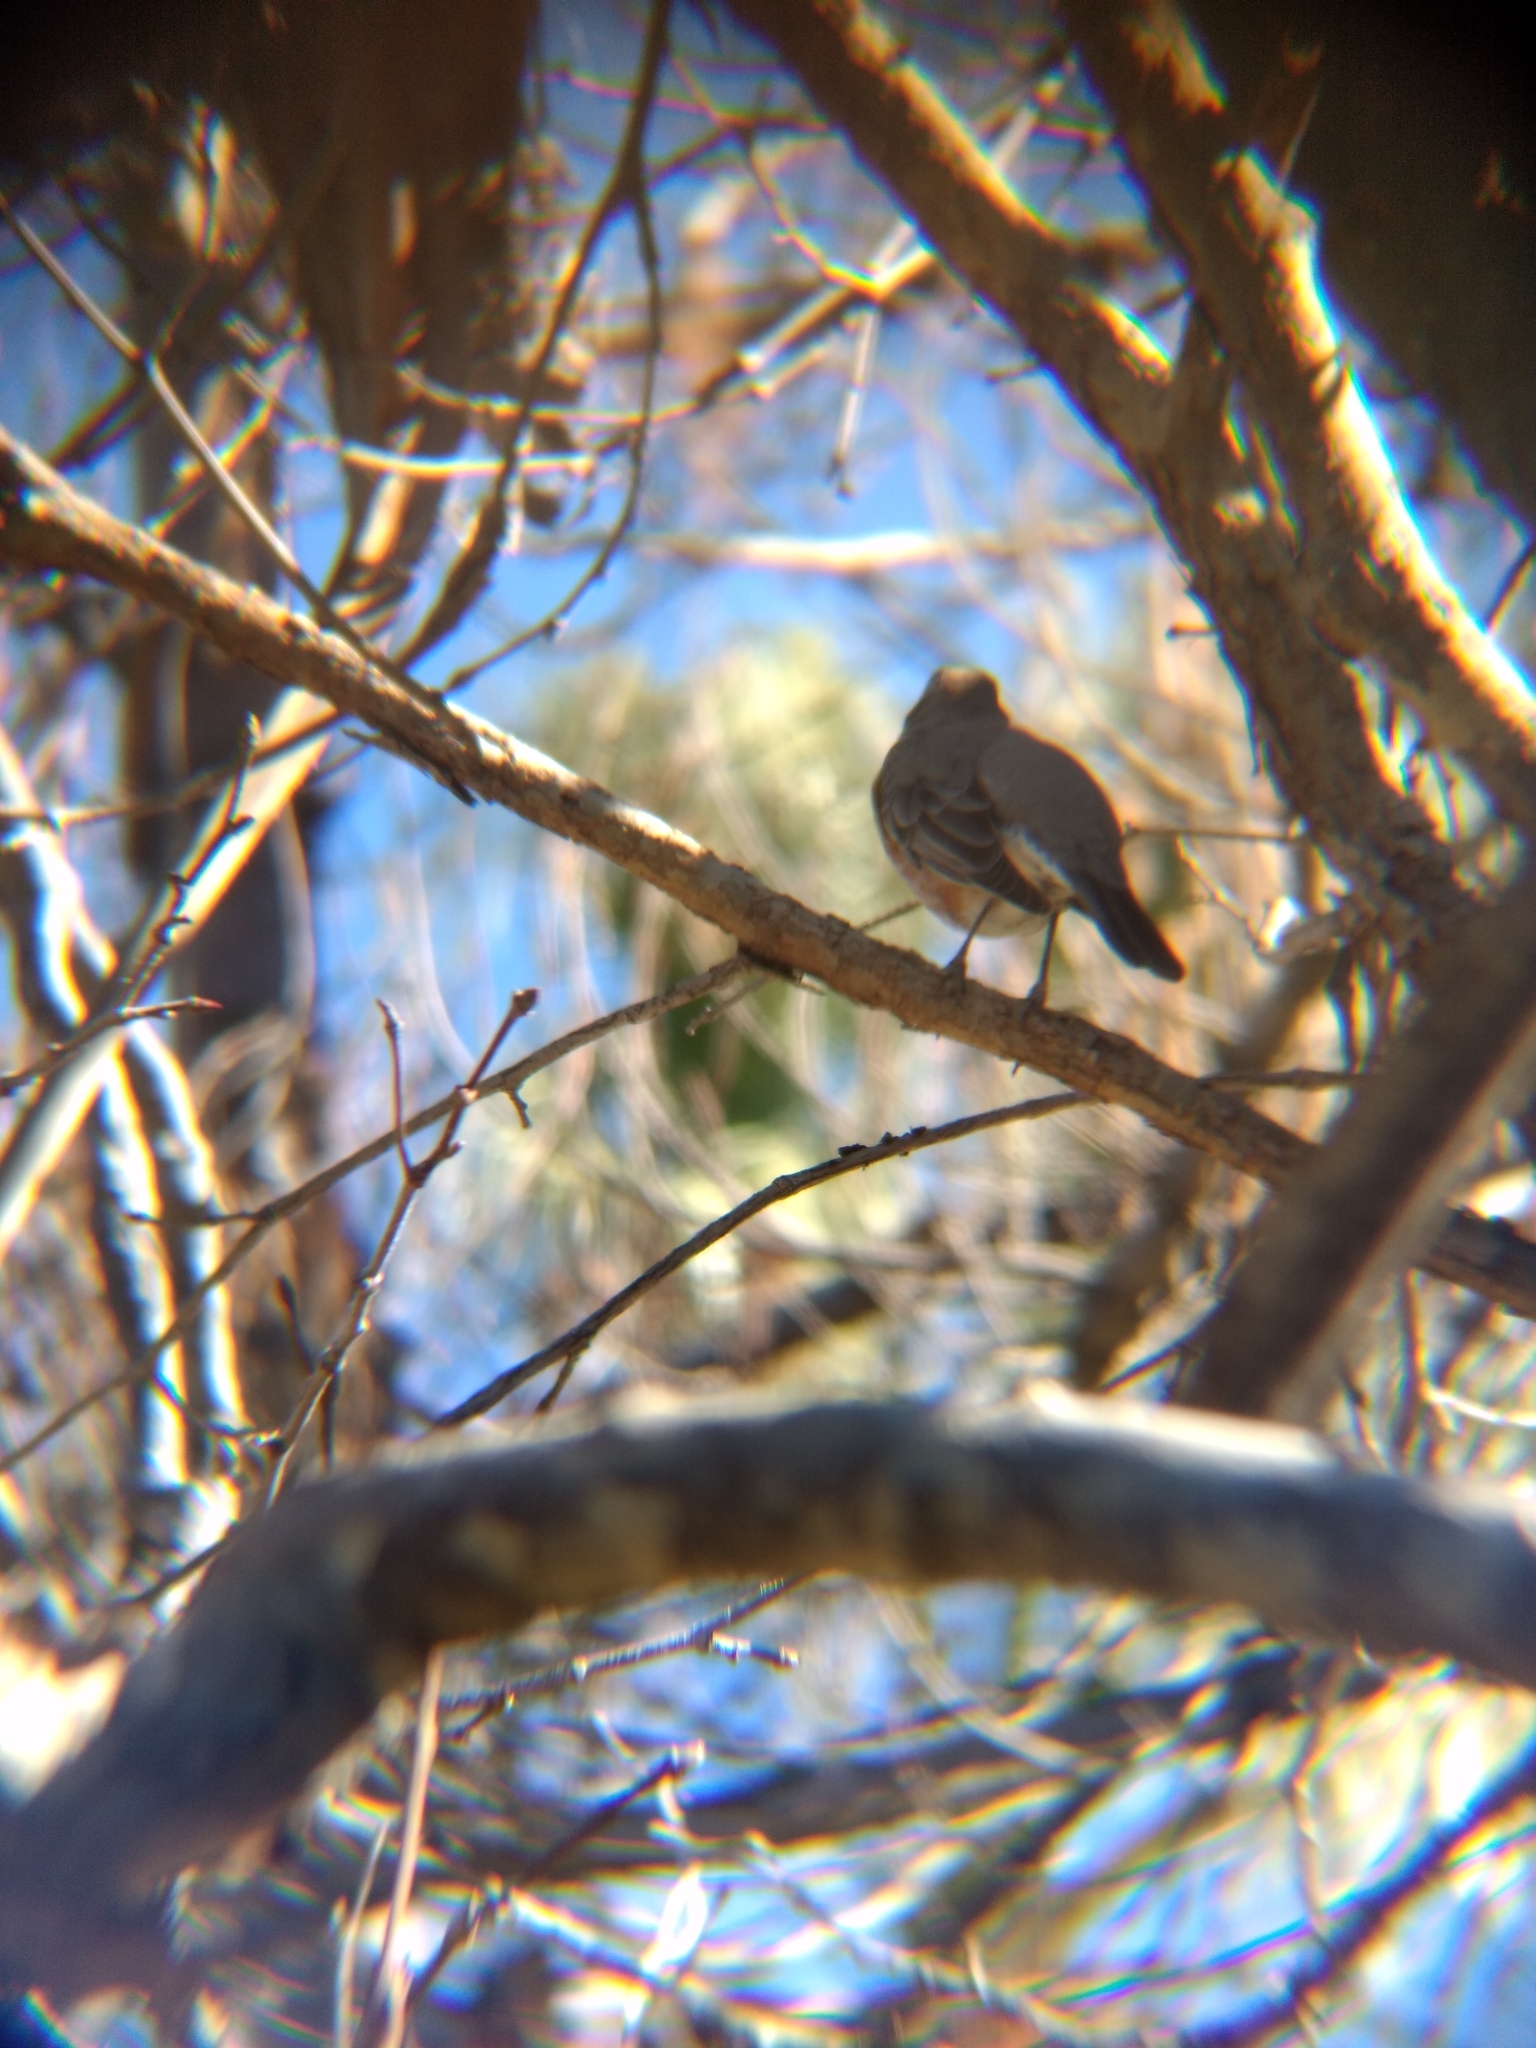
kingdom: Animalia
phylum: Chordata
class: Aves
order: Passeriformes
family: Turdidae
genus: Turdus
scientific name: Turdus migratorius
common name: American robin
